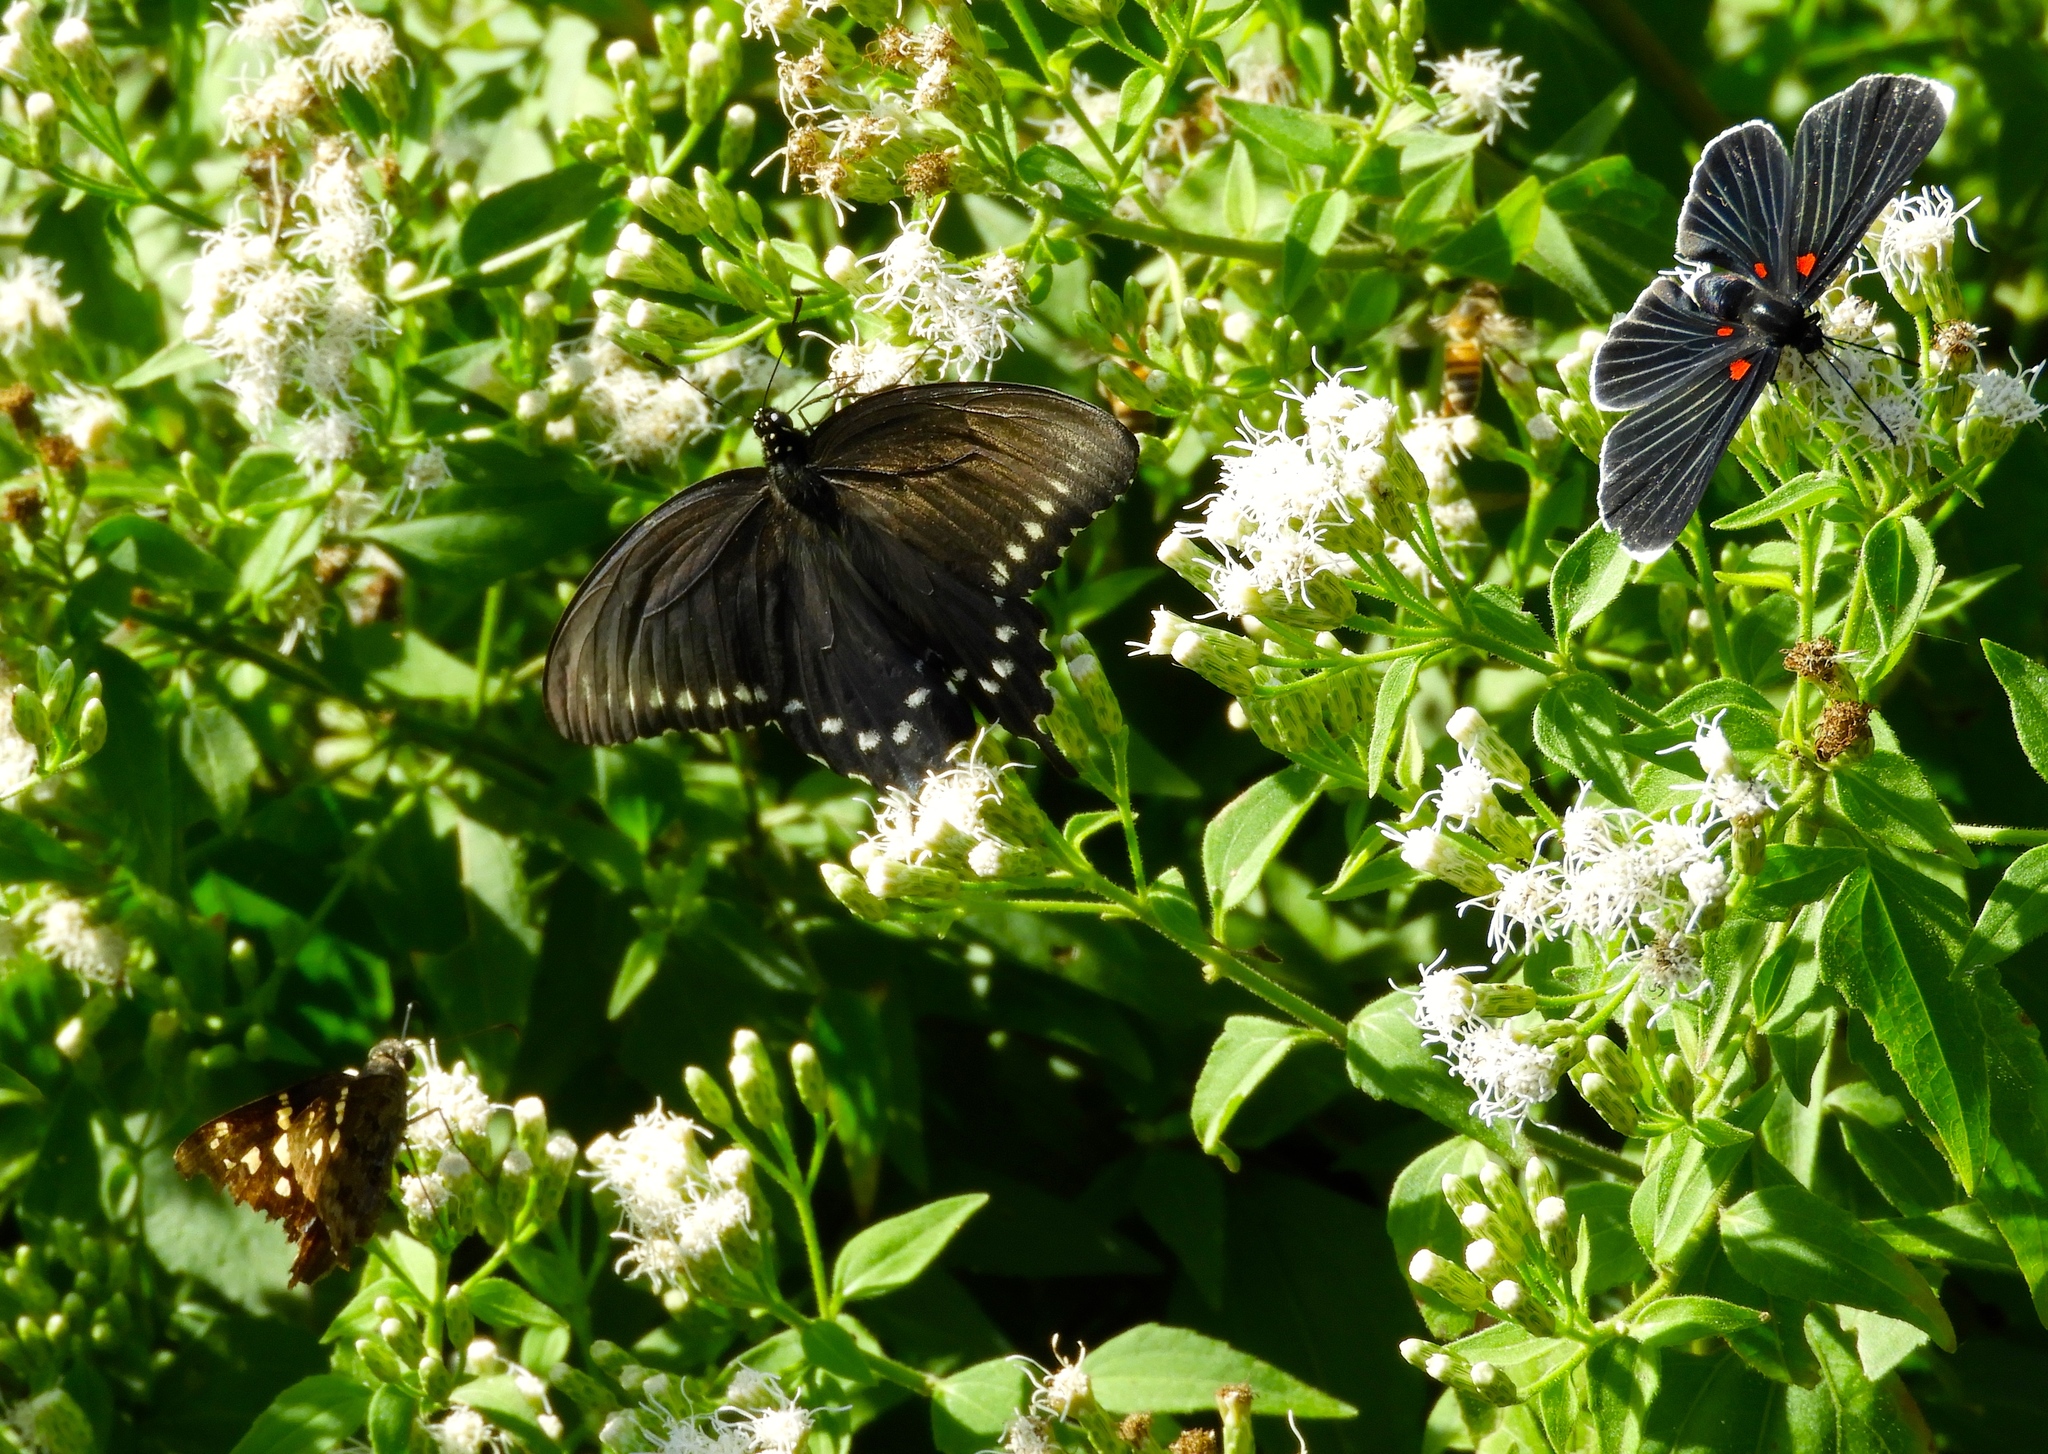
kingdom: Plantae
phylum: Tracheophyta
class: Magnoliopsida
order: Asterales
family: Asteraceae
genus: Chromolaena
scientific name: Chromolaena odorata
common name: Siamweed
